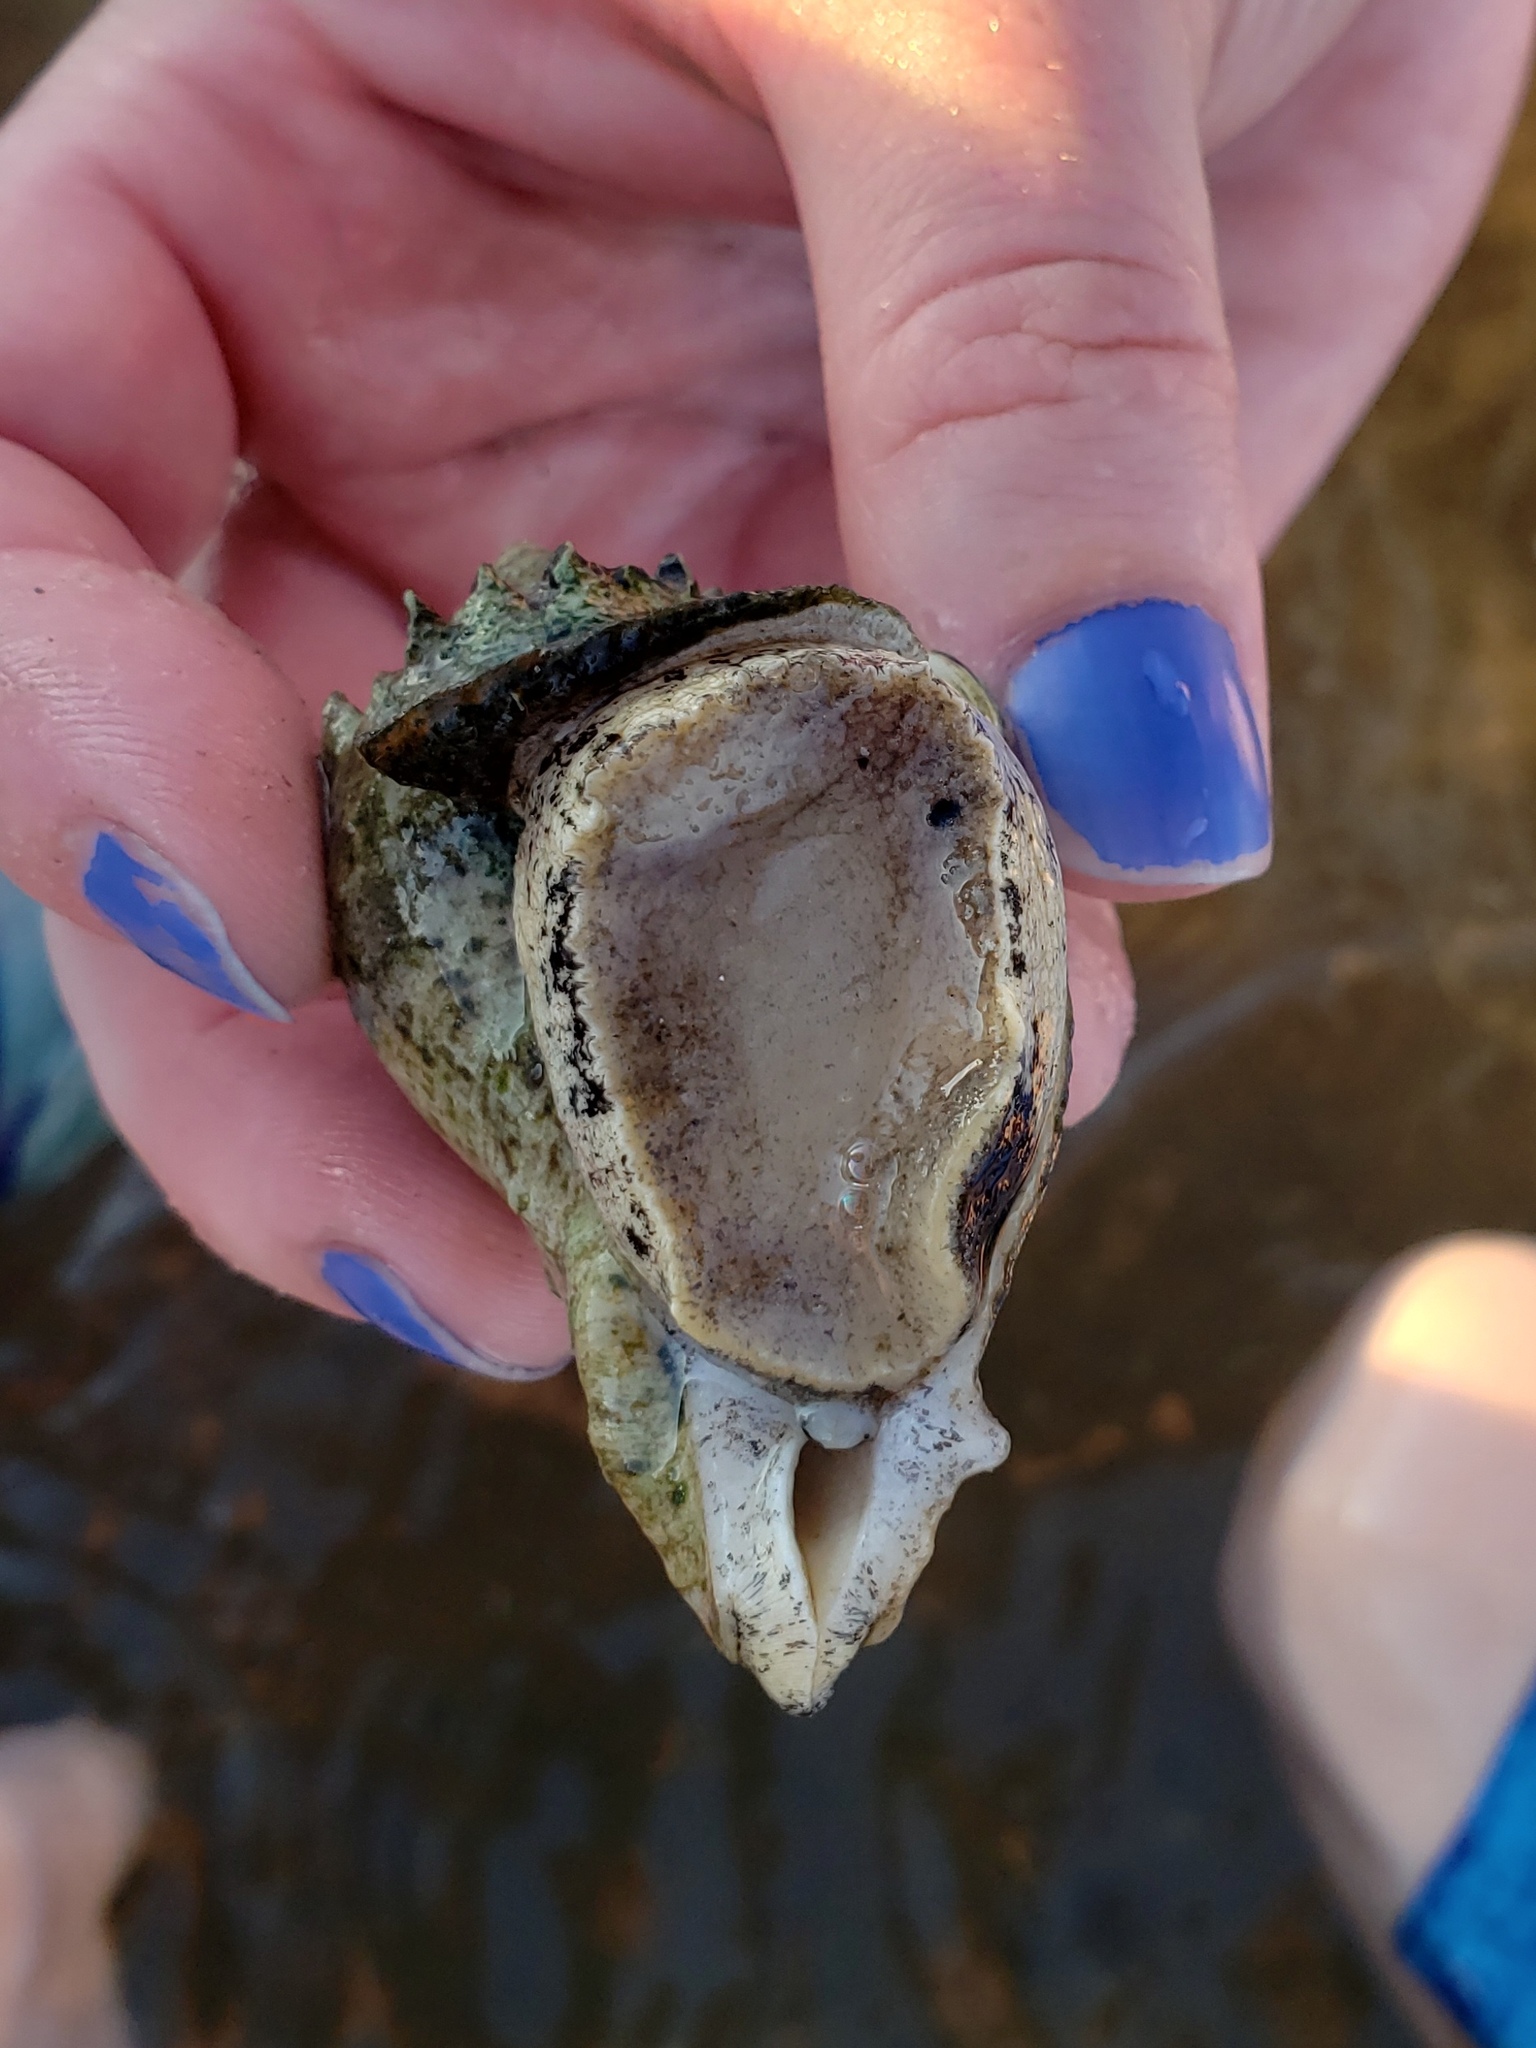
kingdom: Animalia
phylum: Mollusca
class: Gastropoda
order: Neogastropoda
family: Melongenidae
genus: Melongena
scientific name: Melongena corona
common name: American crown conch
